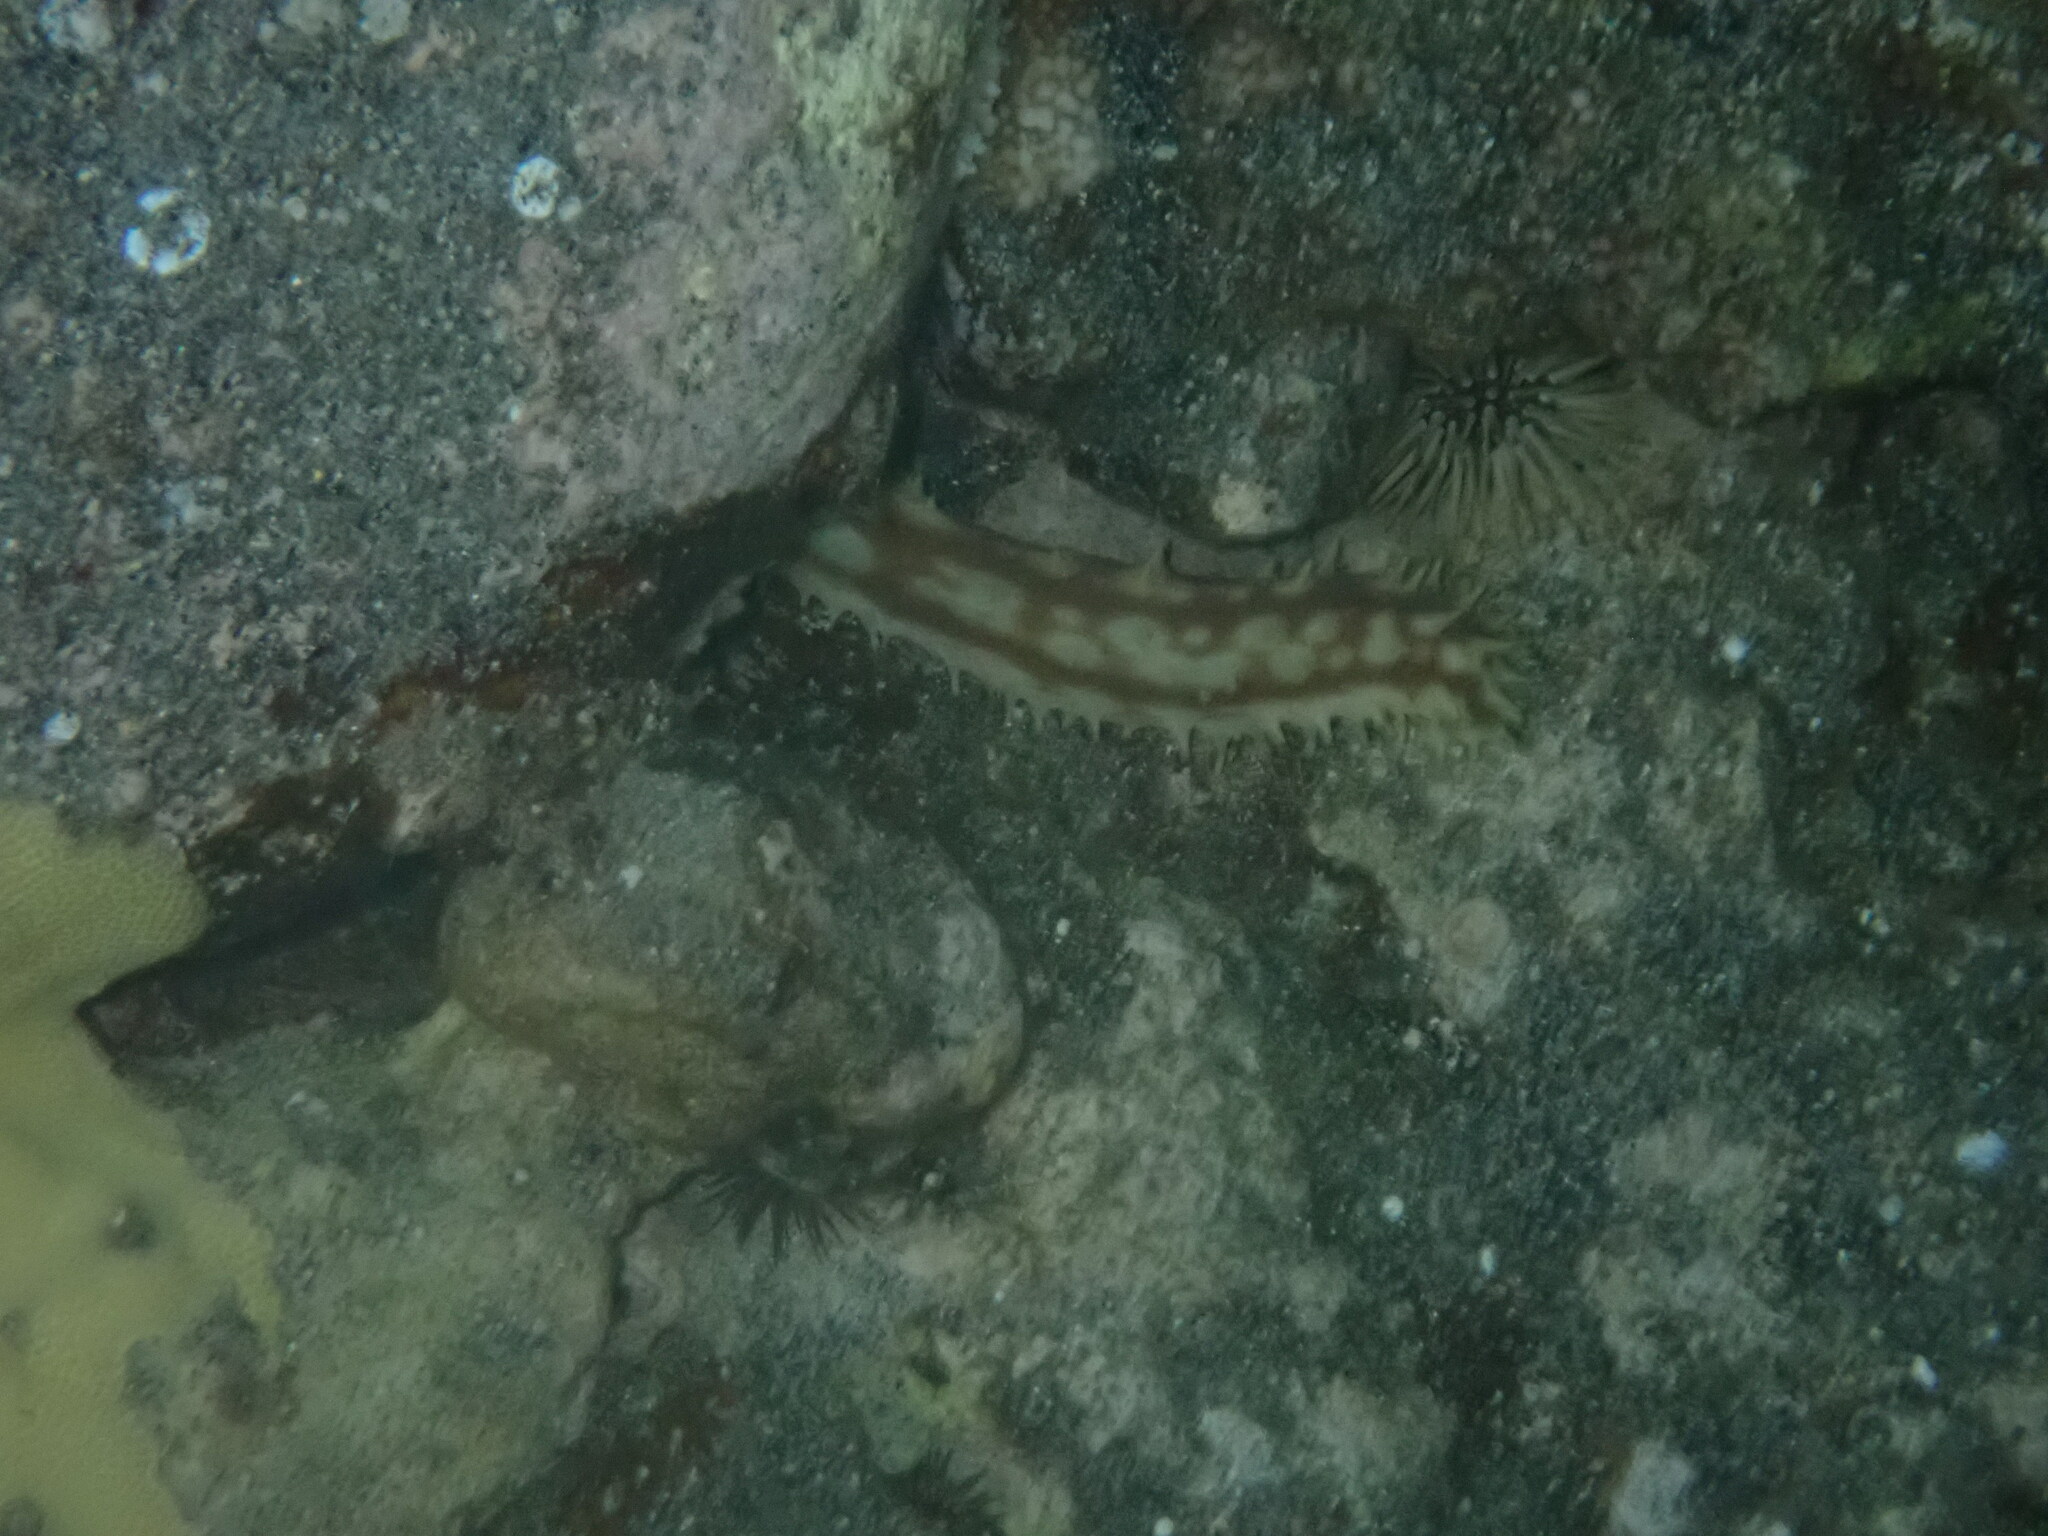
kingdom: Animalia
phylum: Echinodermata
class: Holothuroidea
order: Holothuriida
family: Holothuriidae
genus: Holothuria
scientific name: Holothuria hilla
